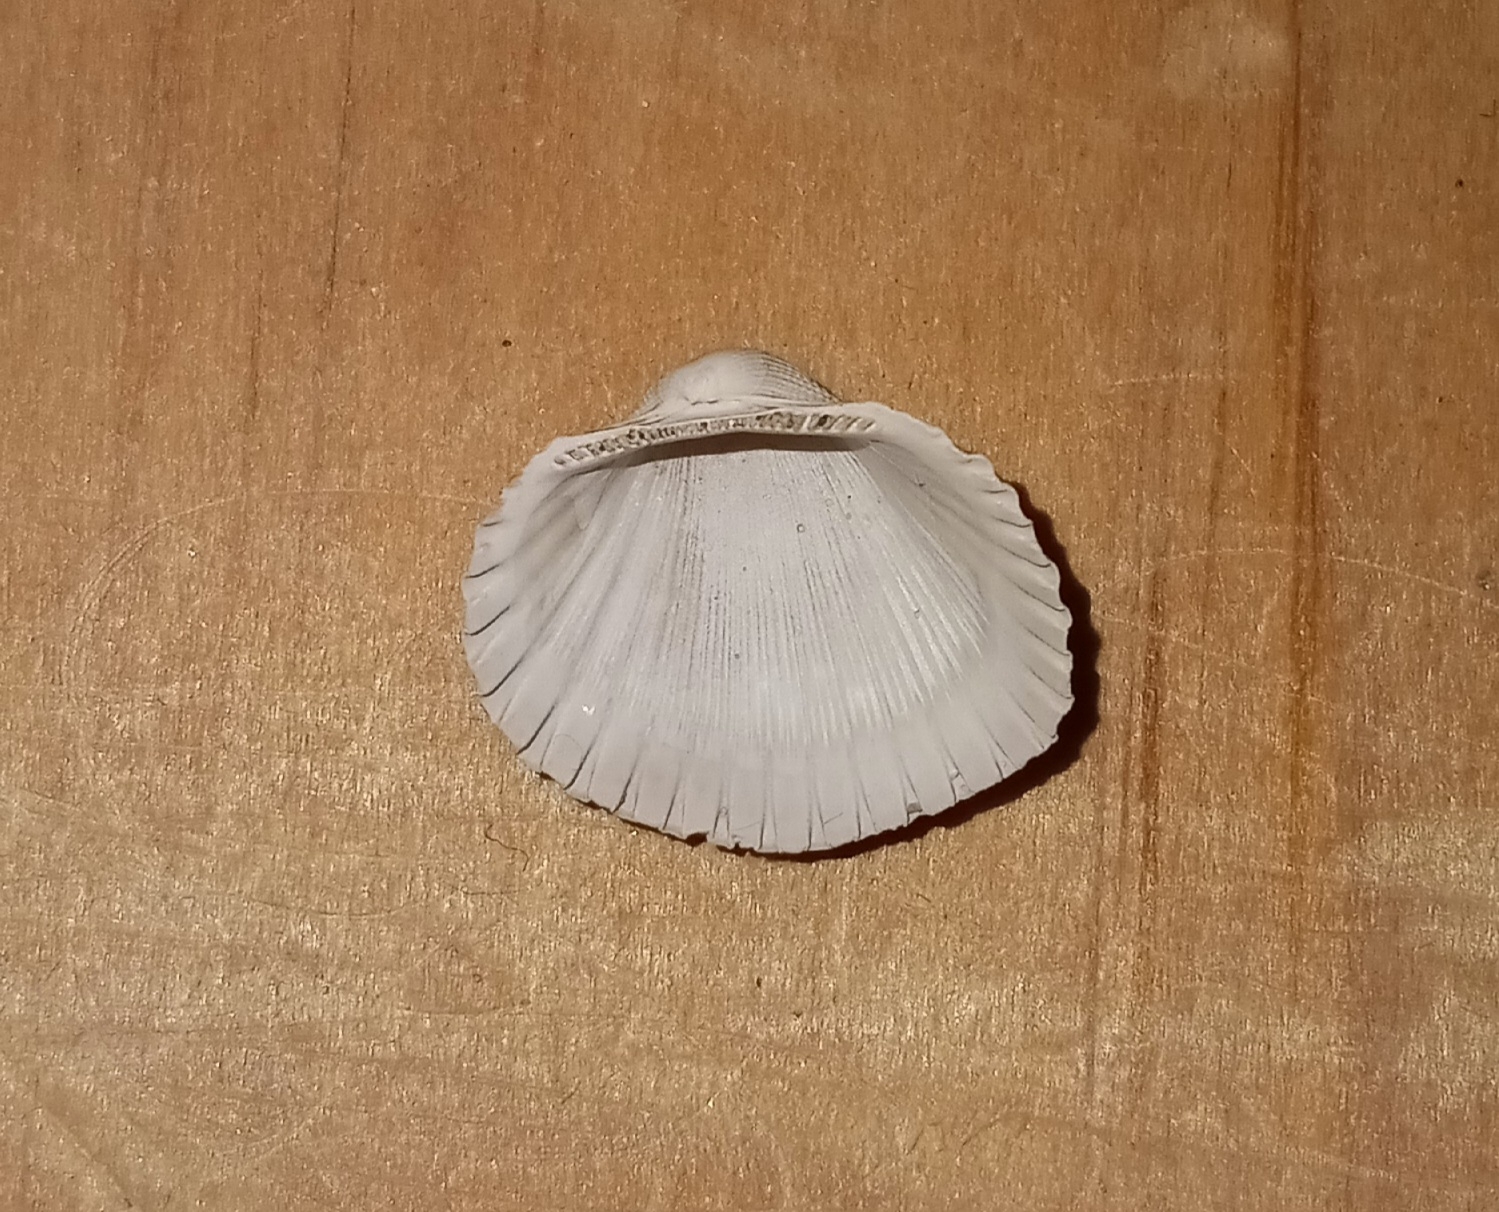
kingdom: Animalia
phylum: Mollusca
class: Bivalvia
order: Arcida
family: Arcidae
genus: Anadara
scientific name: Anadara brasiliana
